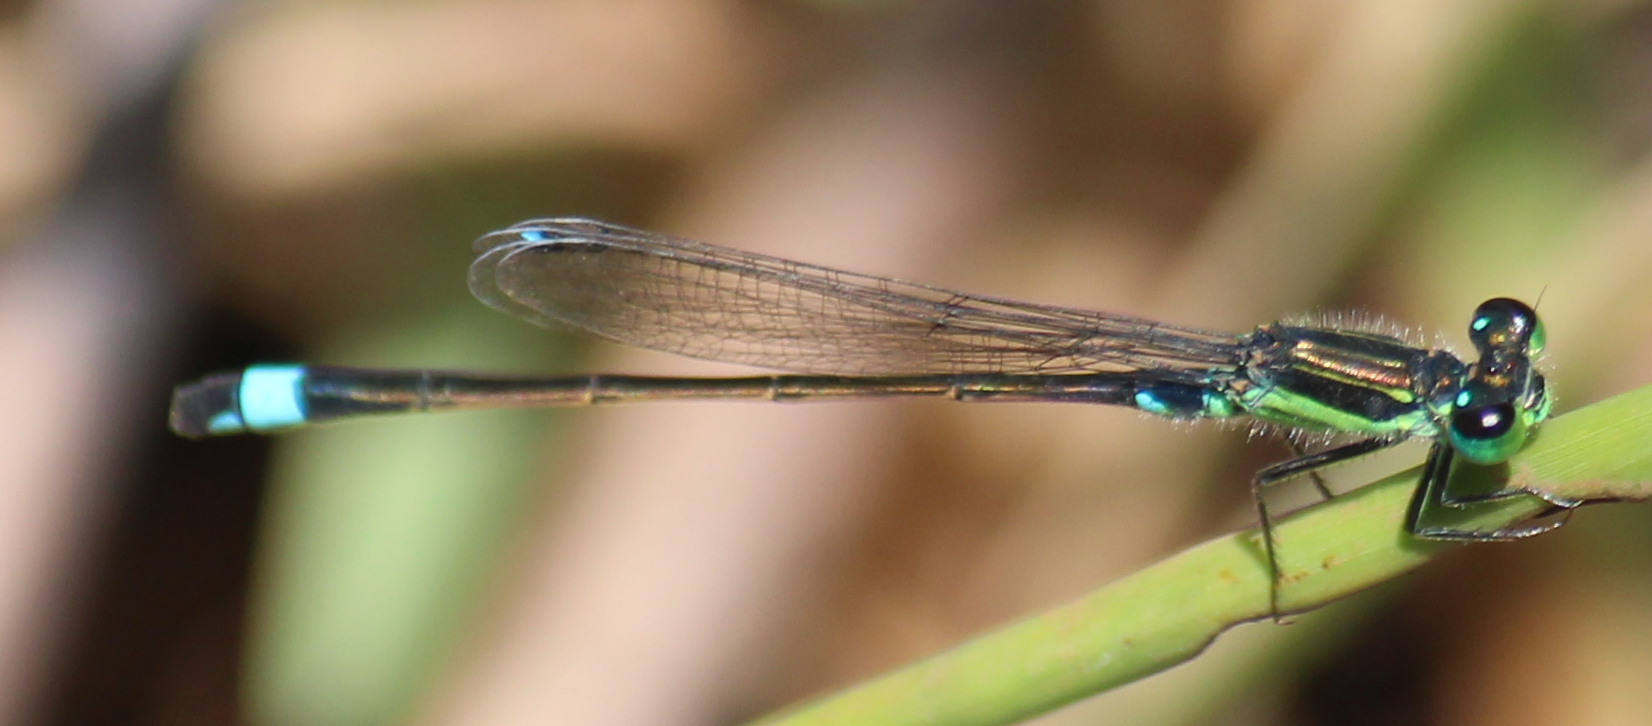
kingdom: Animalia
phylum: Arthropoda
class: Insecta
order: Odonata
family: Coenagrionidae
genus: Ischnura
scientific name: Ischnura senegalensis
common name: Tropical bluetail
